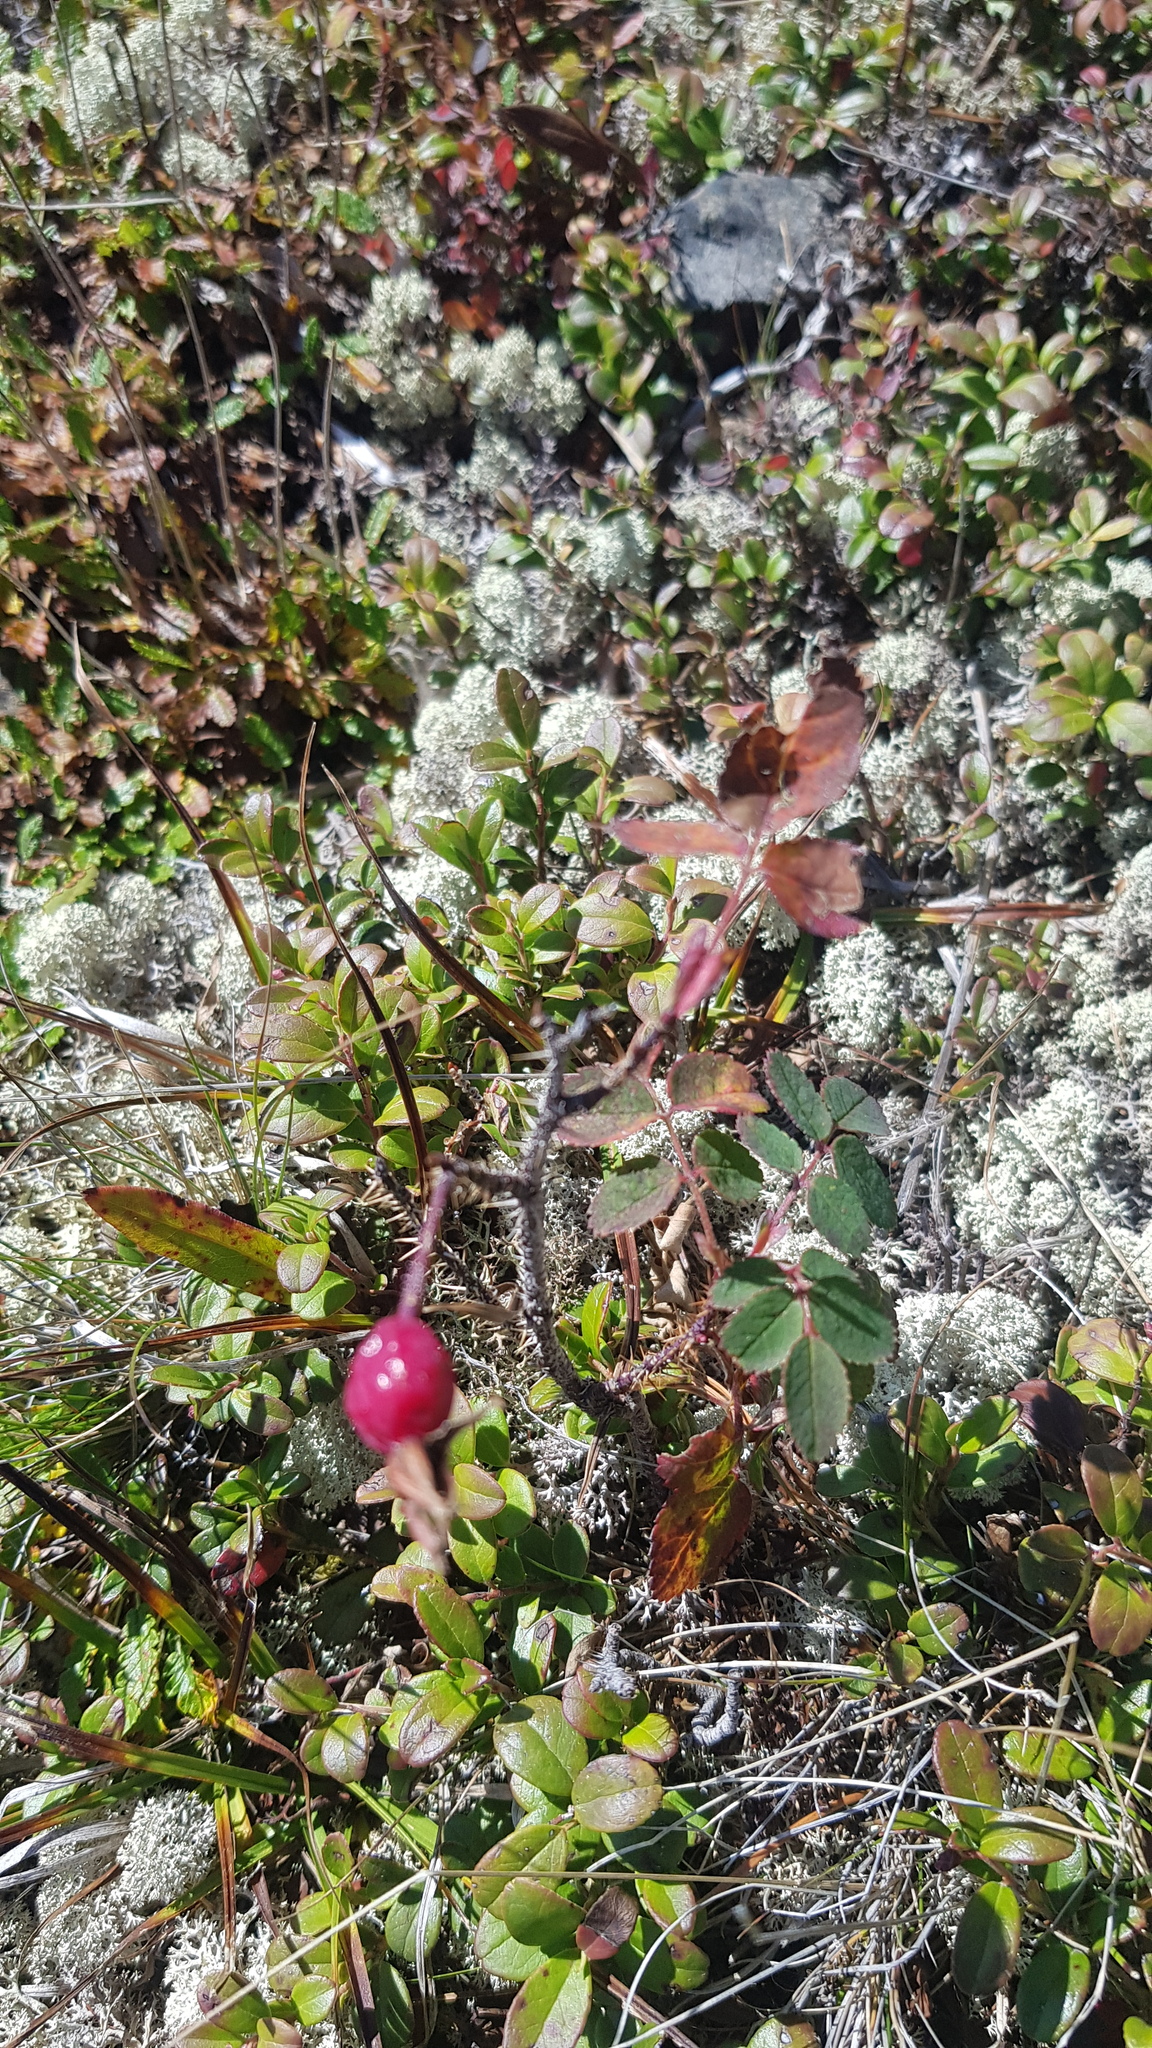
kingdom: Plantae
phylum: Tracheophyta
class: Magnoliopsida
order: Rosales
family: Rosaceae
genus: Rosa
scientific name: Rosa acicularis
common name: Prickly rose
